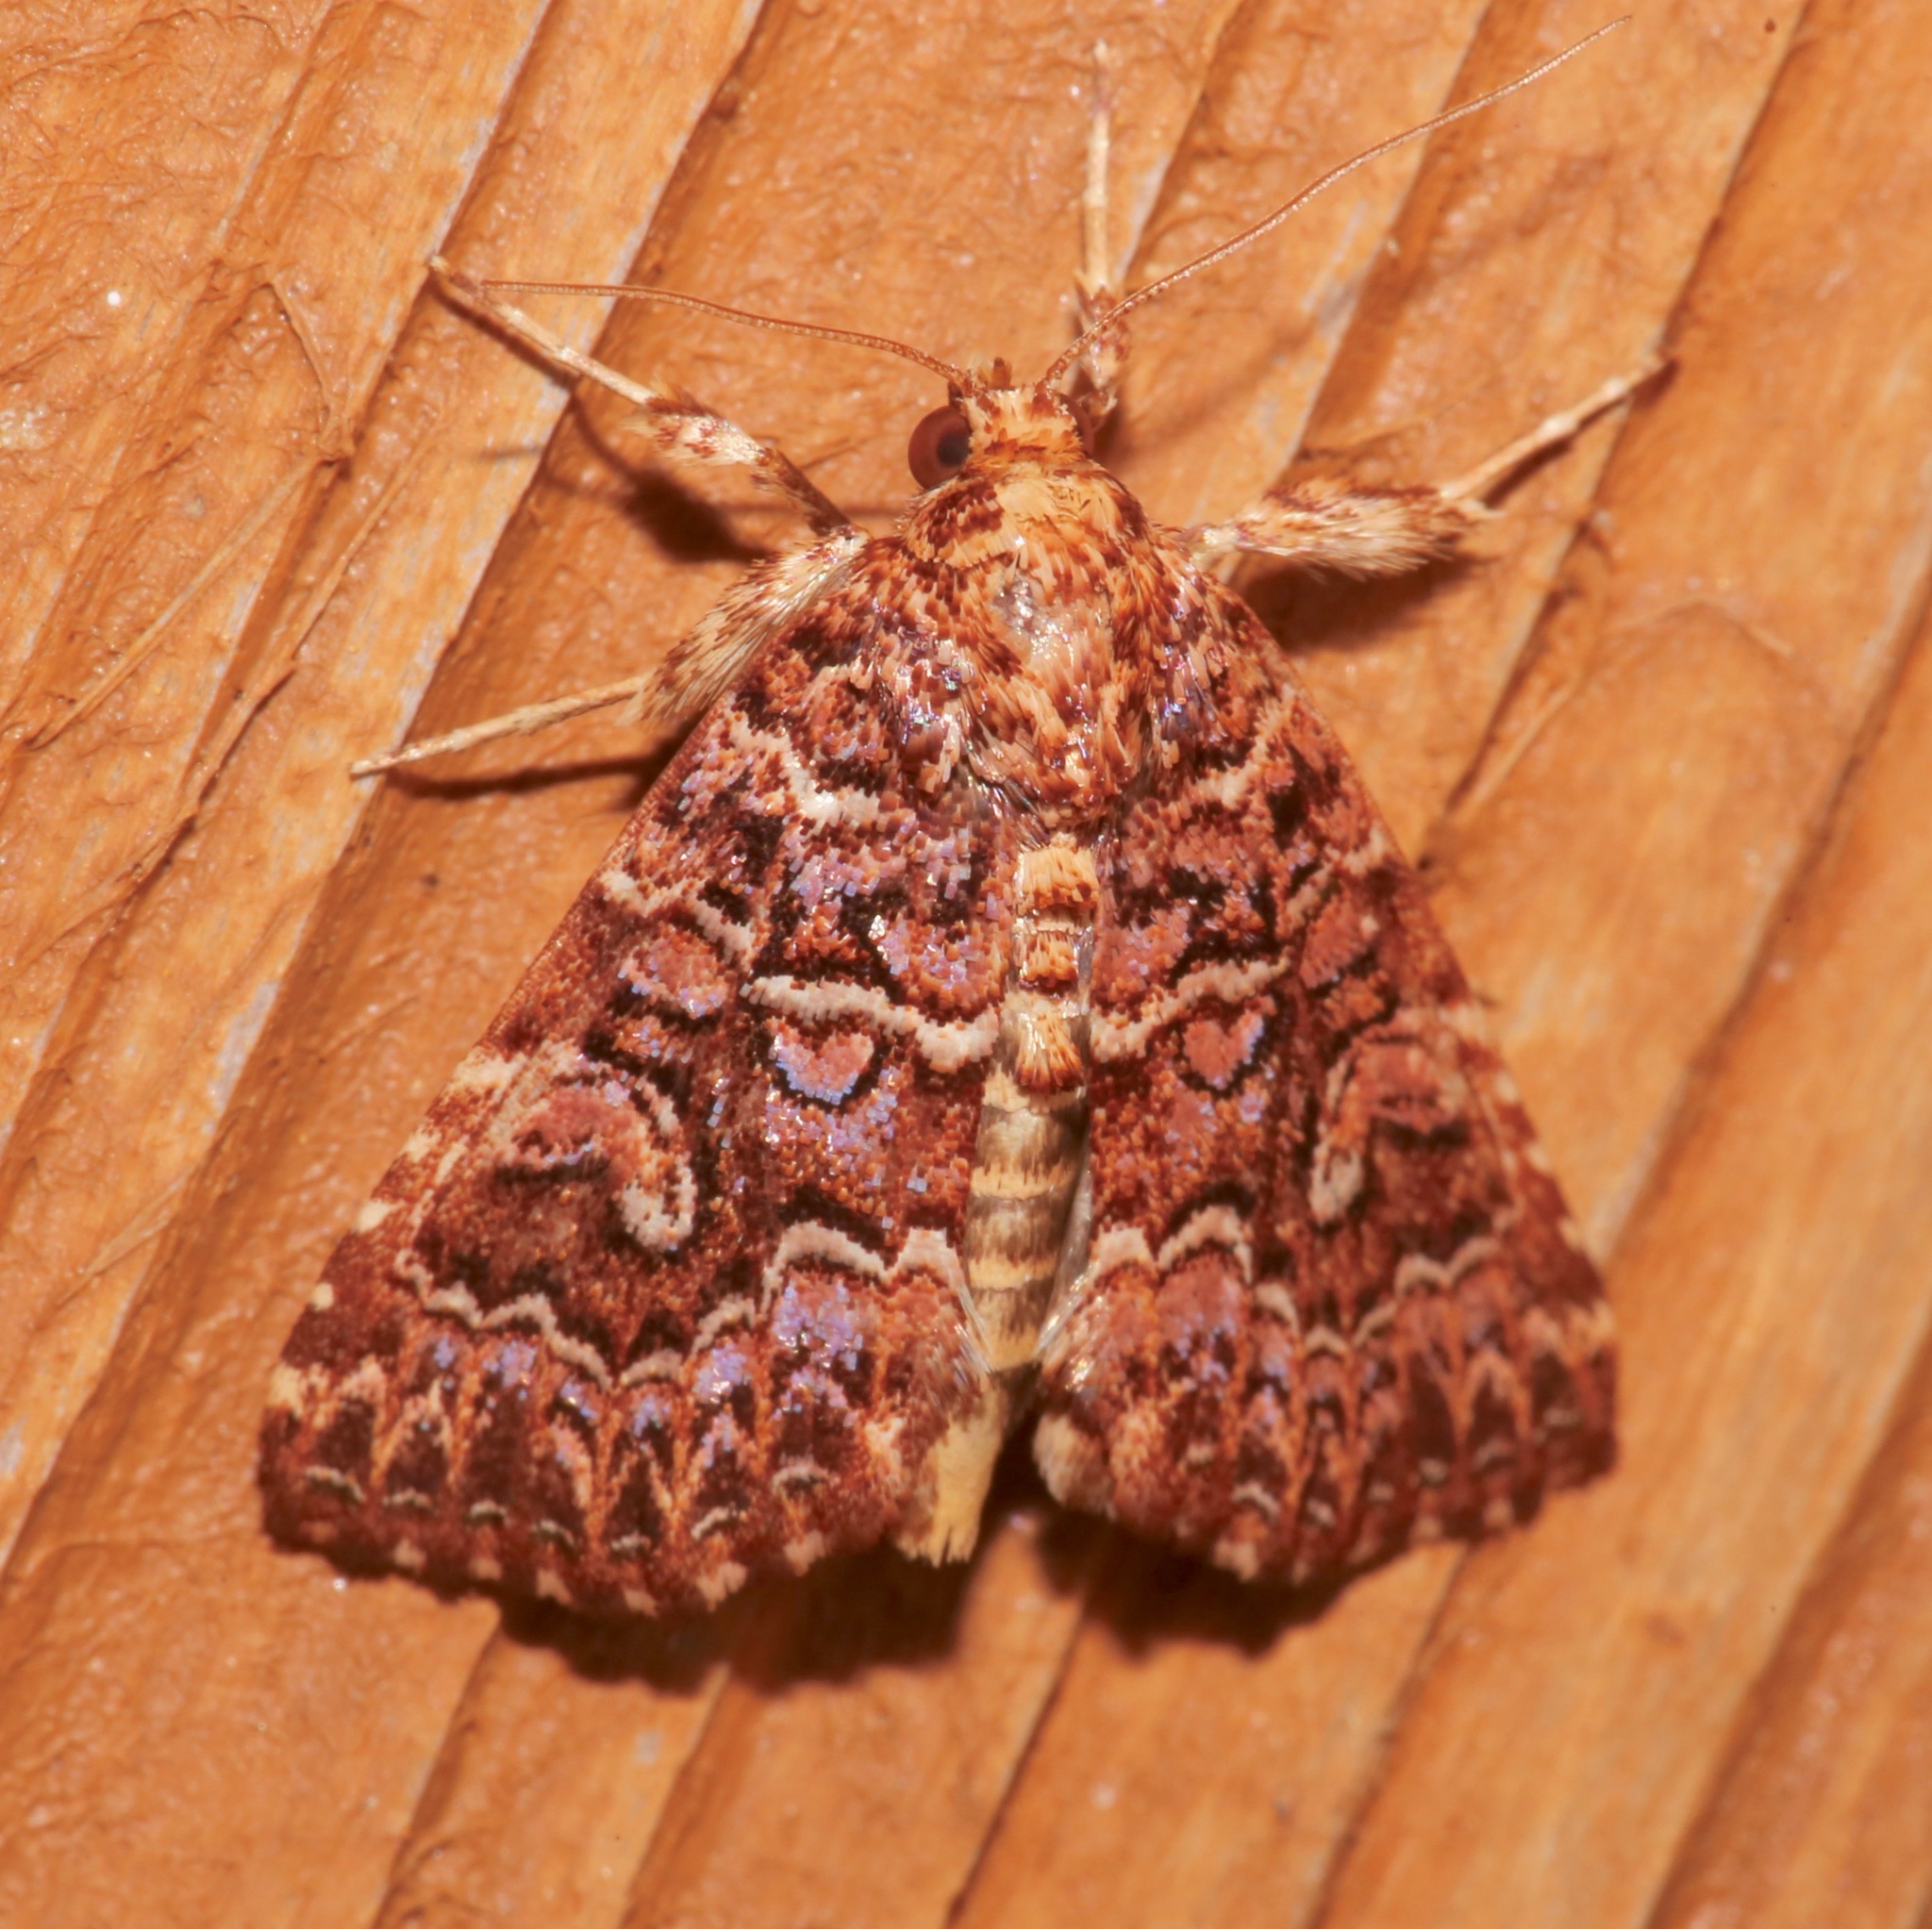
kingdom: Animalia
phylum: Arthropoda
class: Insecta
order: Lepidoptera
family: Noctuidae
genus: Callopistria
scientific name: Callopistria granitosa
